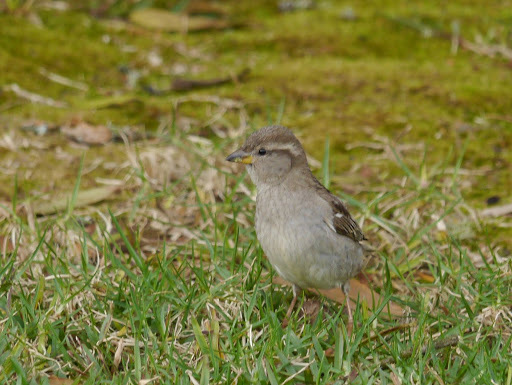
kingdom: Animalia
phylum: Chordata
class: Aves
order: Passeriformes
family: Passeridae
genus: Passer
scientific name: Passer domesticus
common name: House sparrow
